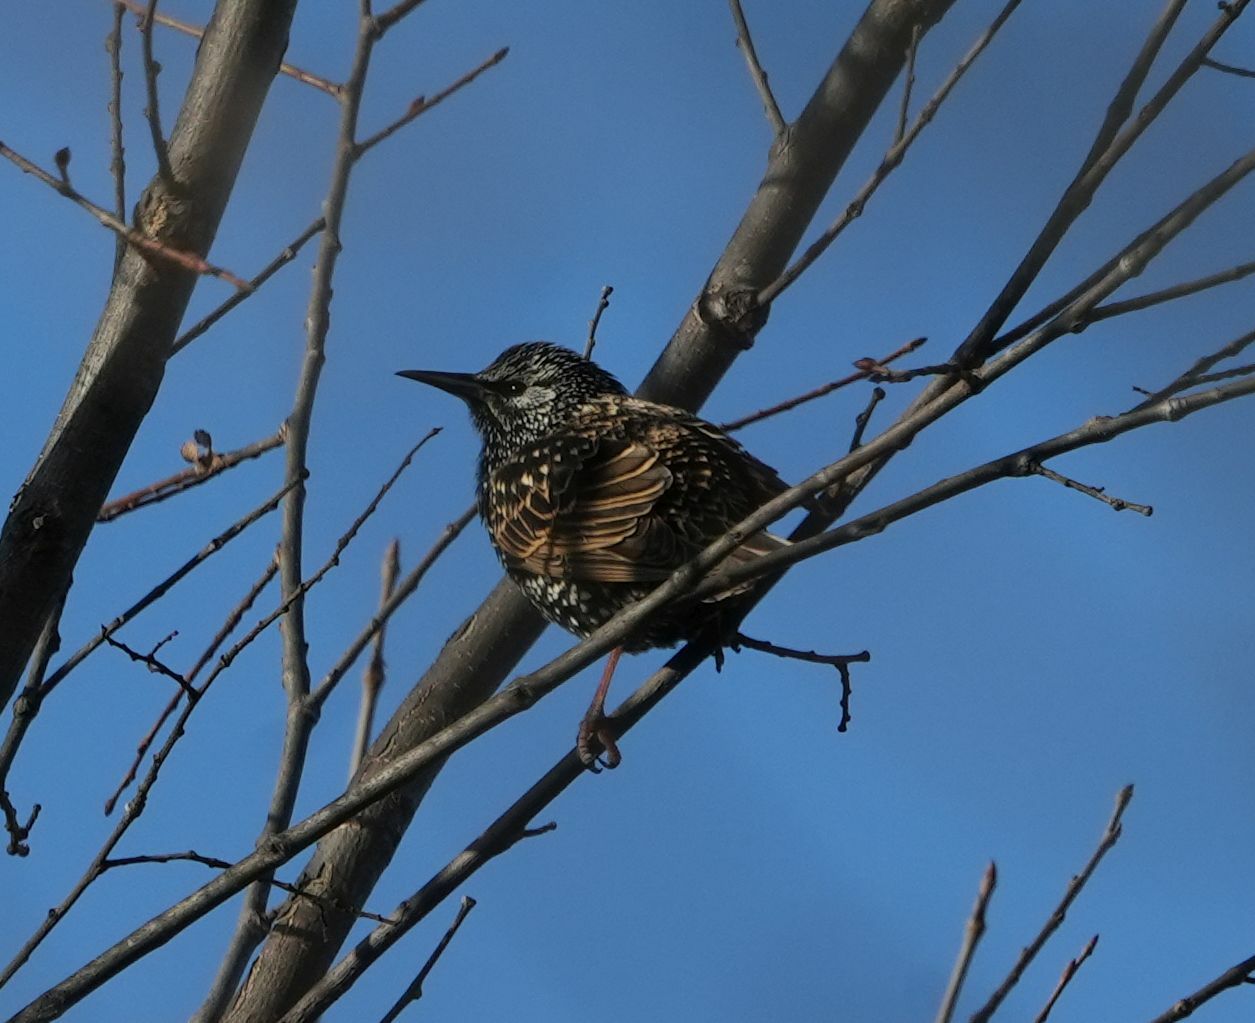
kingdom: Animalia
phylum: Chordata
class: Aves
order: Passeriformes
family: Sturnidae
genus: Sturnus
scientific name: Sturnus vulgaris
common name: Common starling
